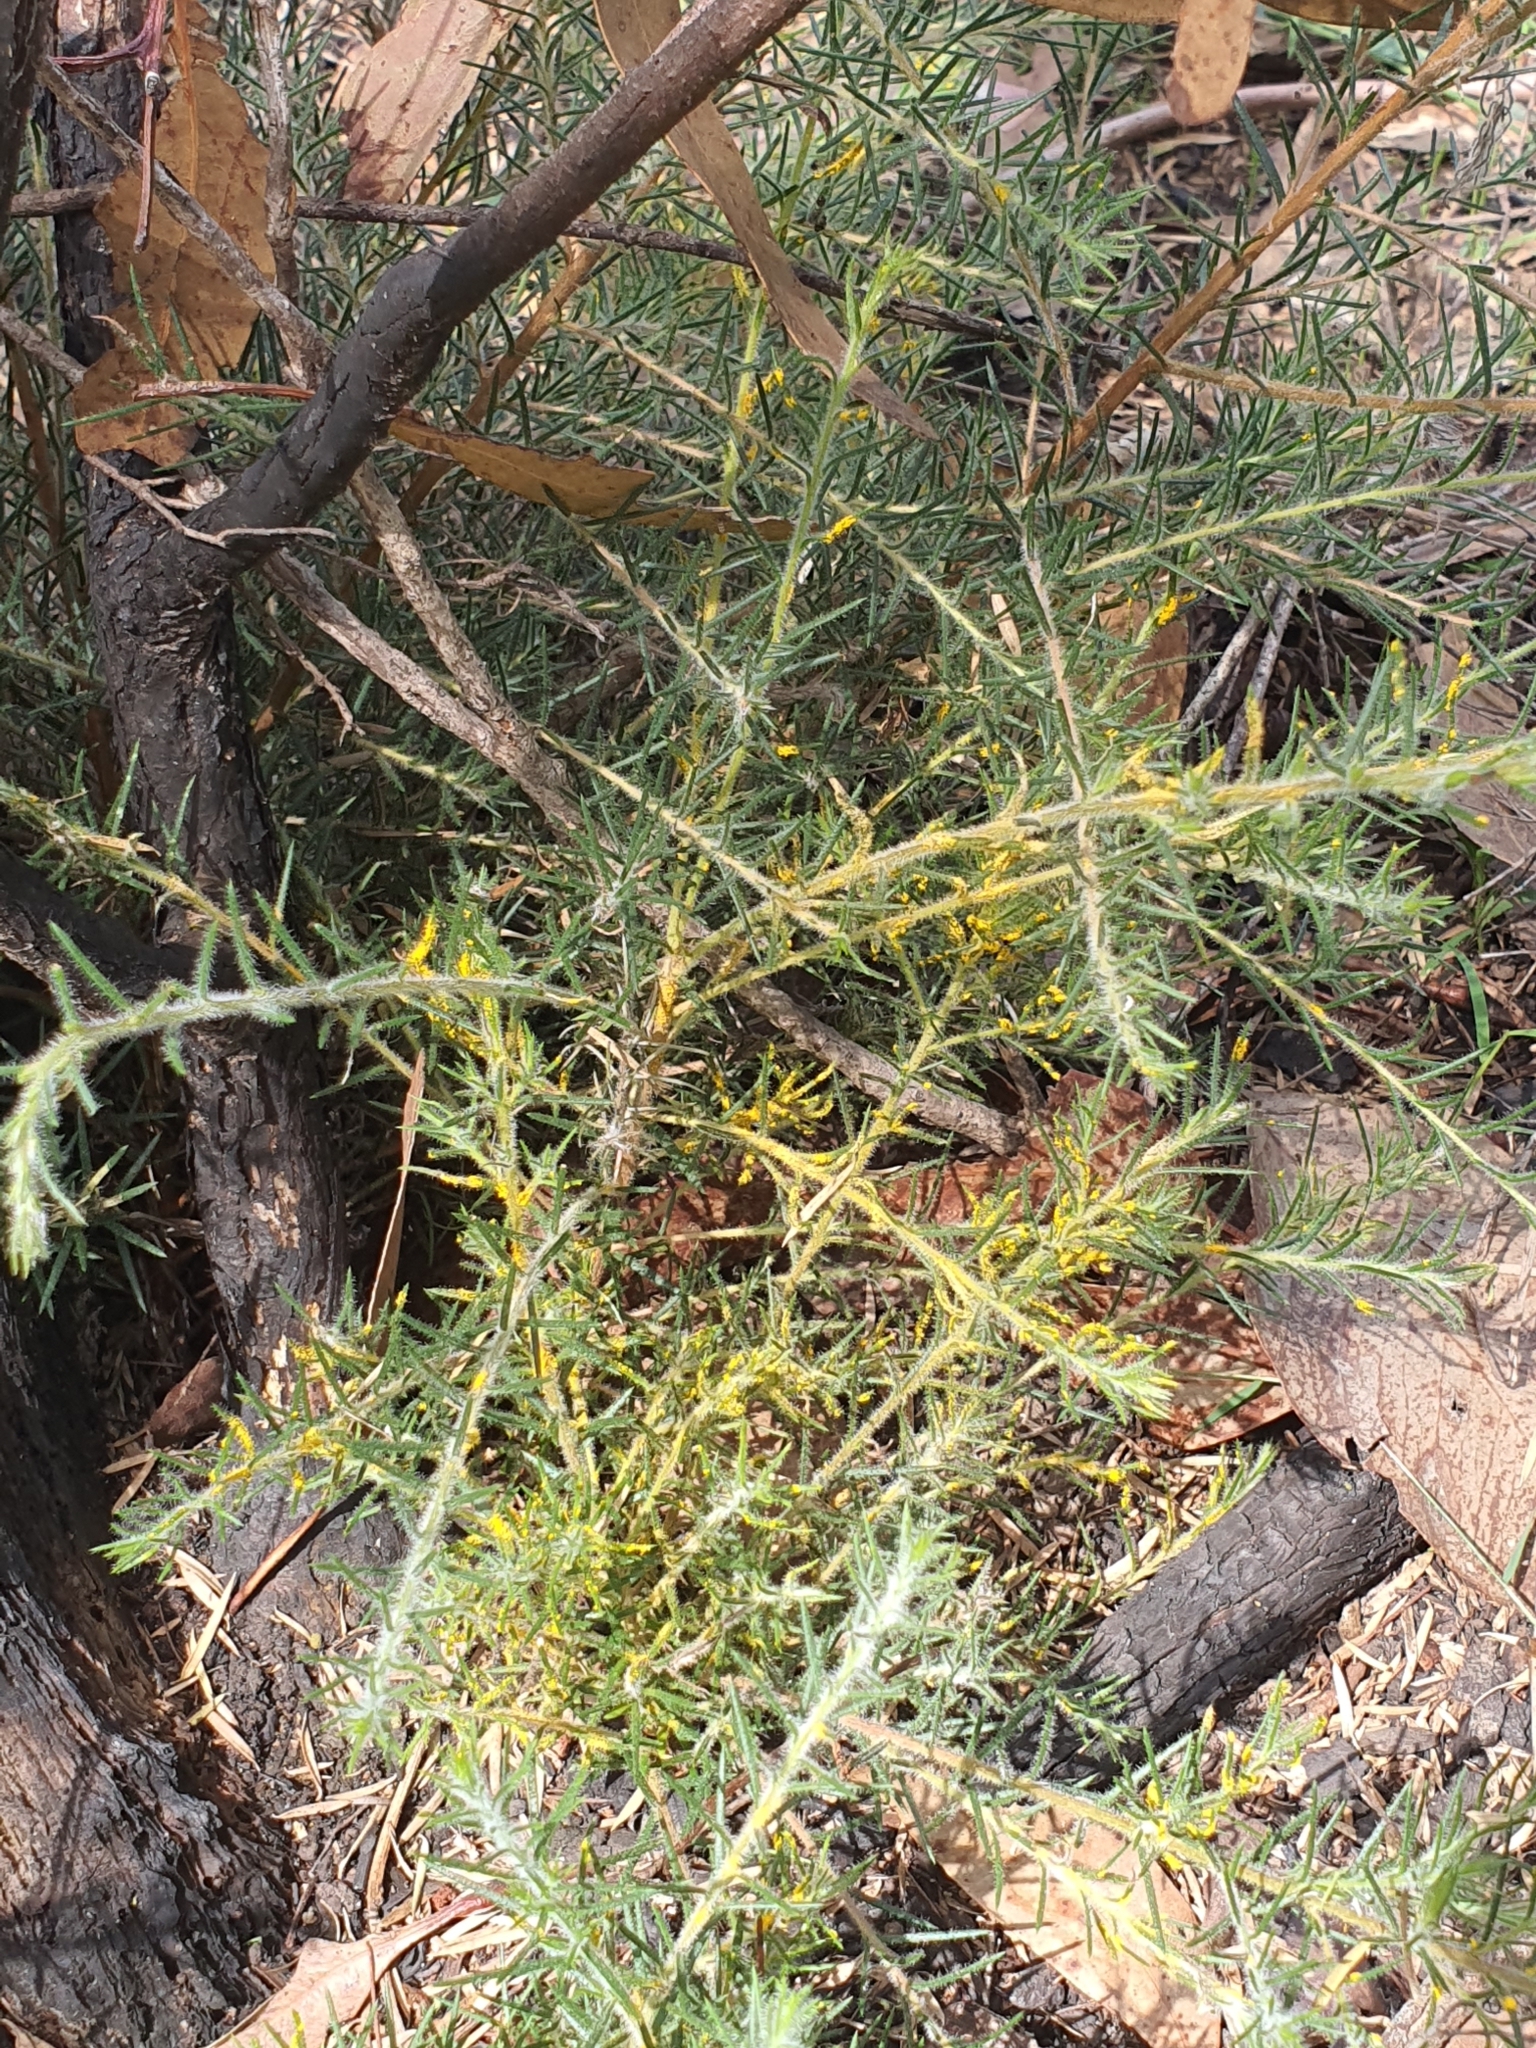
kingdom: Fungi
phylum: Basidiomycota
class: Pucciniomycetes
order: Pucciniales
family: Sphaerophragmiaceae
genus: Austropuccinia
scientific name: Austropuccinia psidii
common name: Myrtle rust
